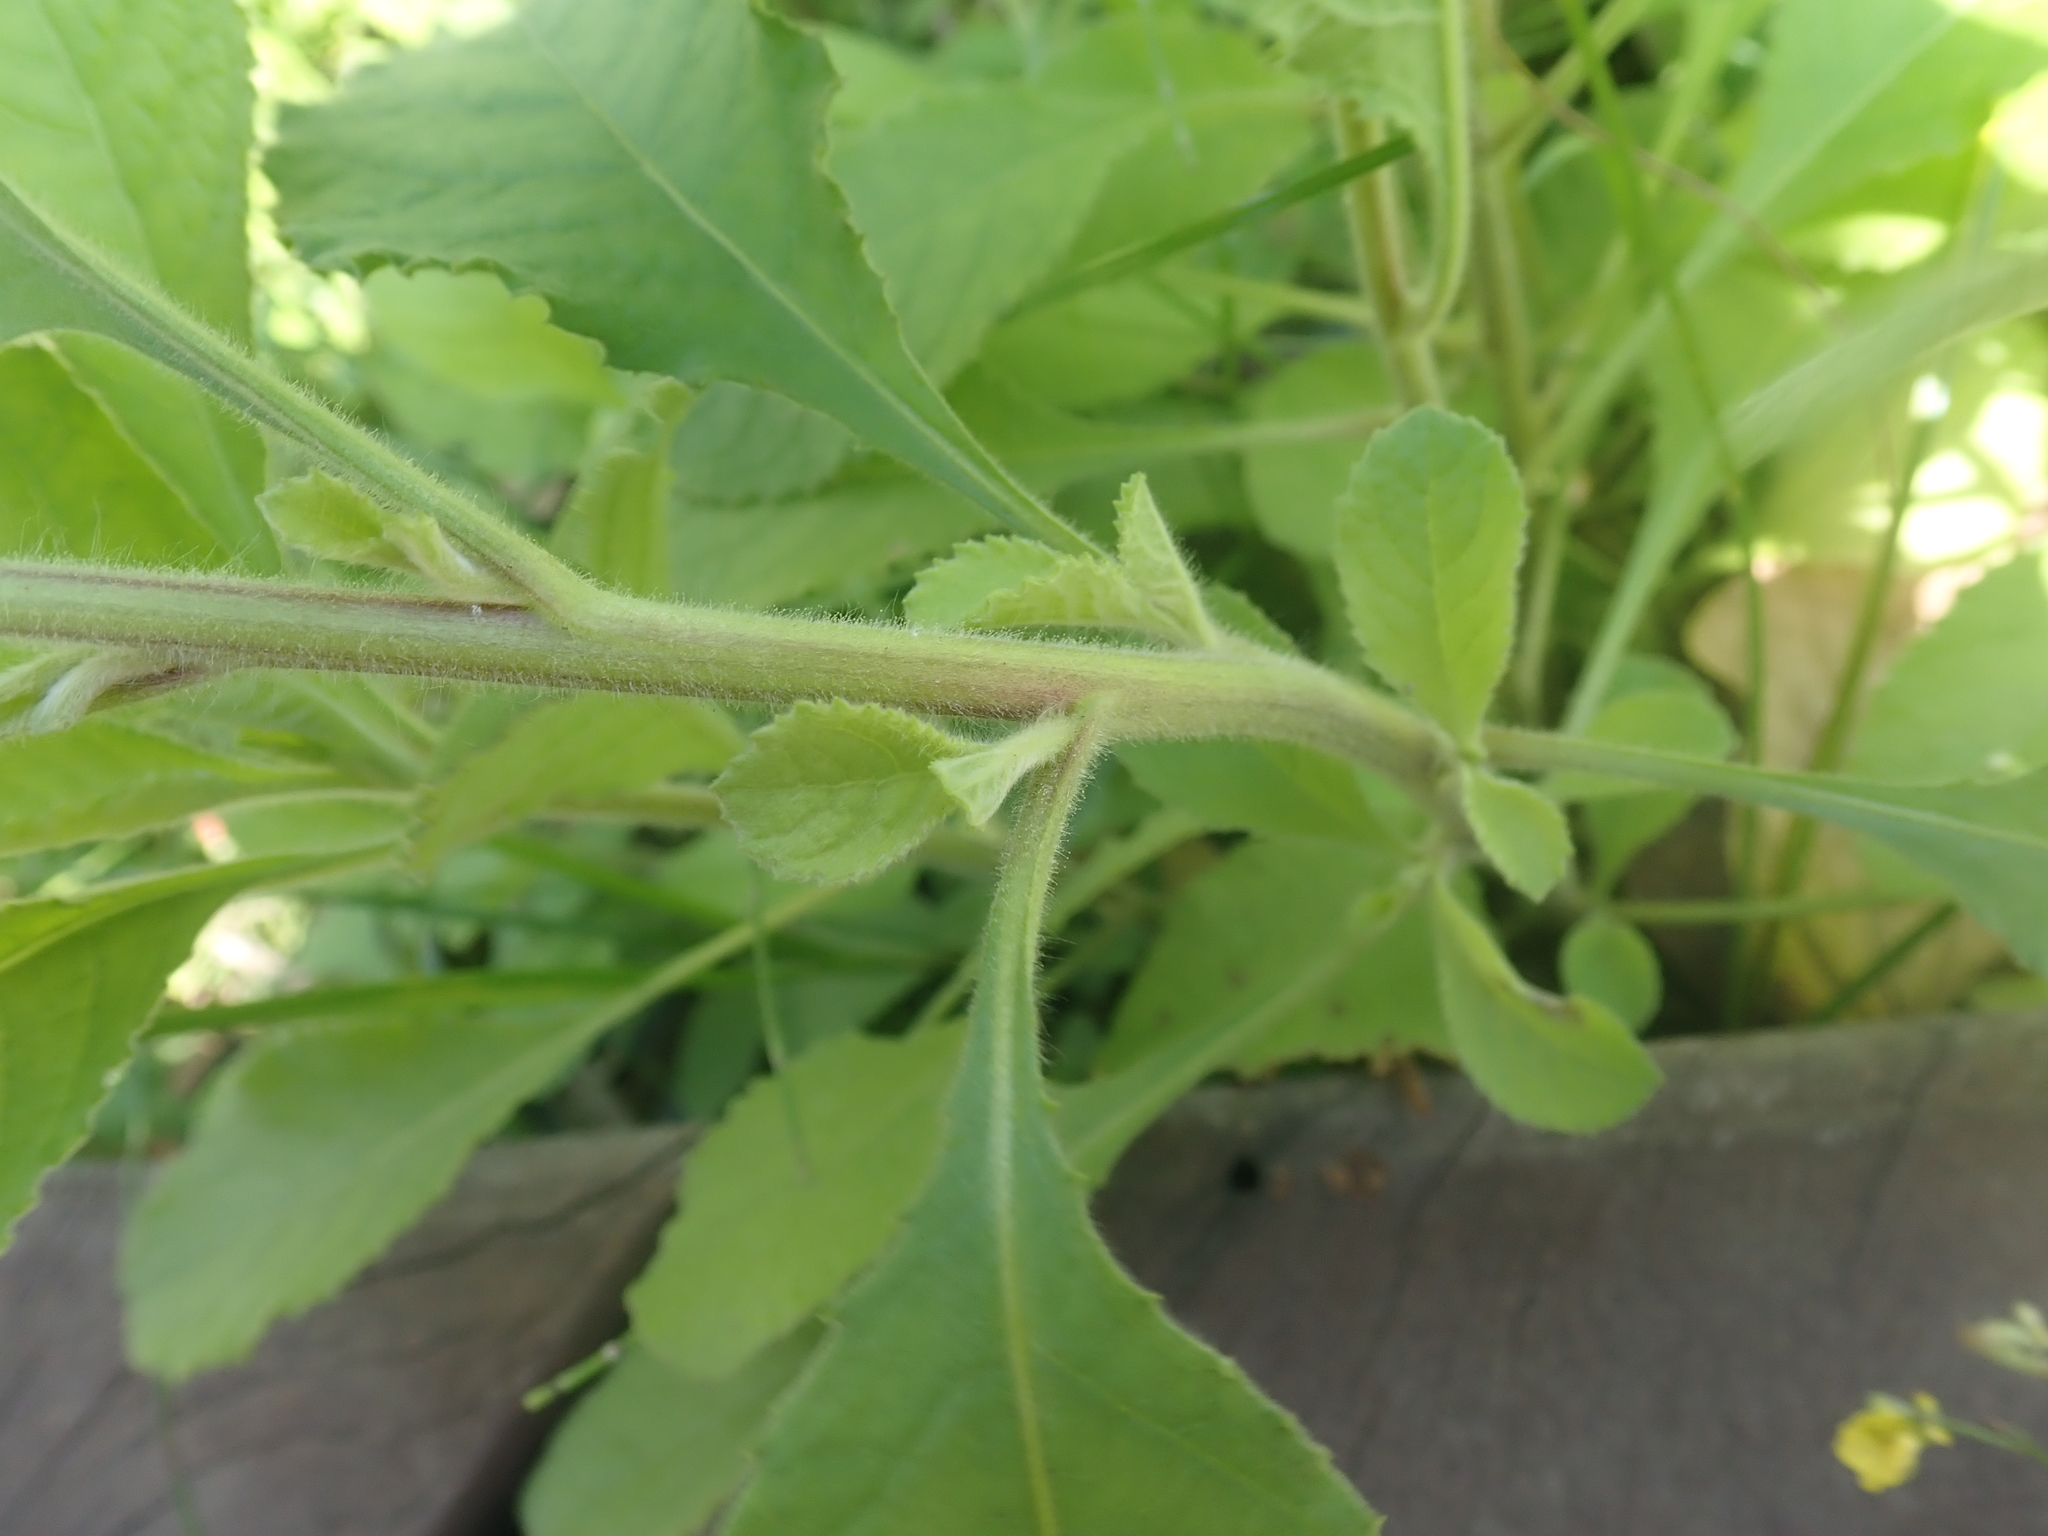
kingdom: Plantae
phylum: Tracheophyta
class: Magnoliopsida
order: Asterales
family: Asteraceae
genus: Blumea
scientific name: Blumea axillaris
